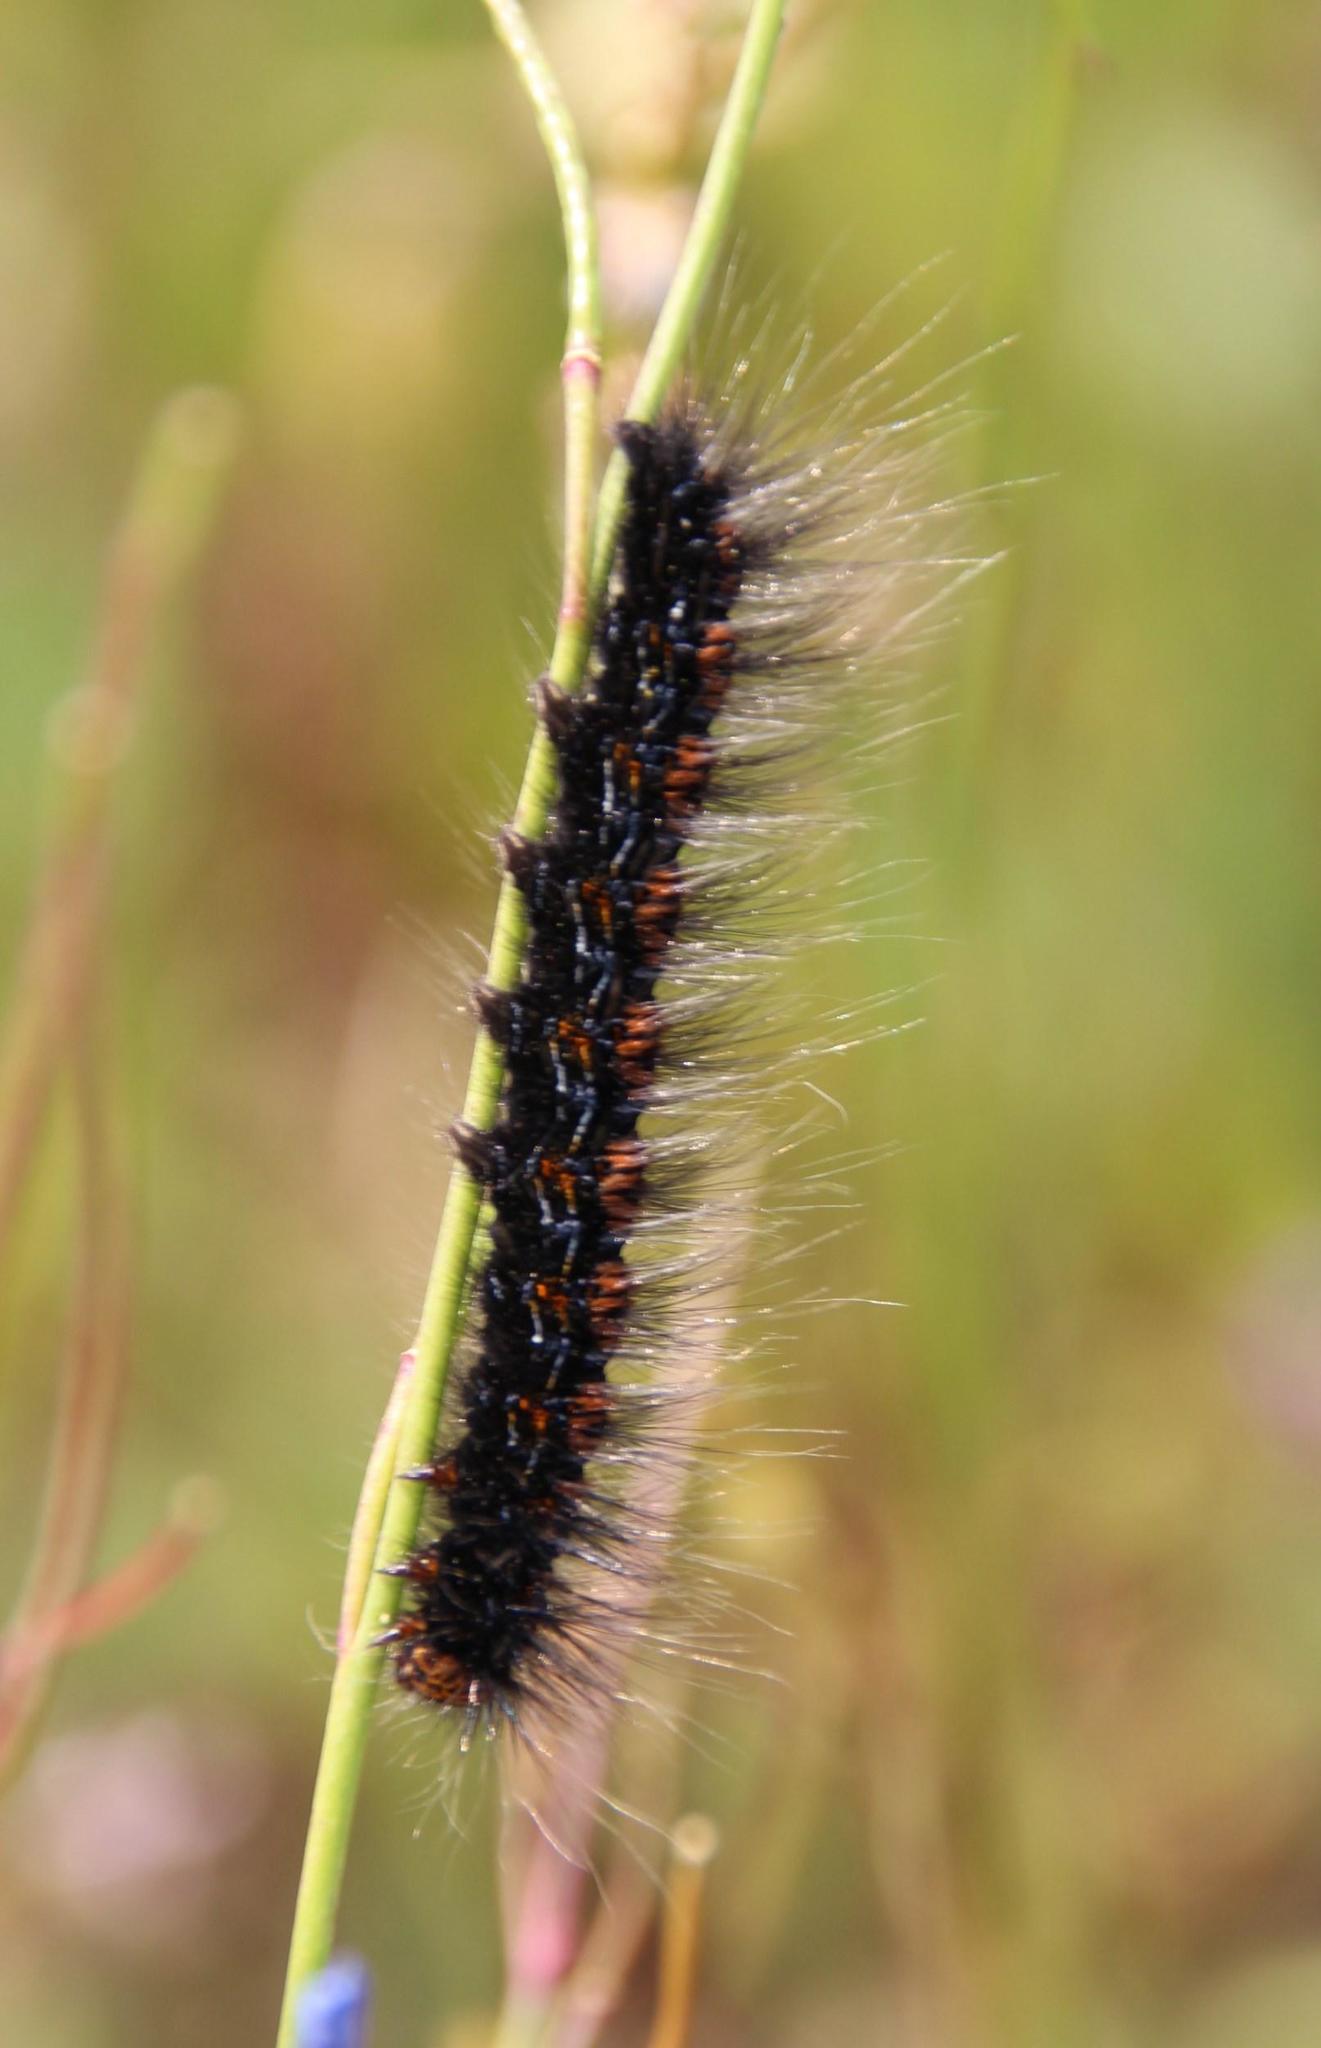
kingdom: Animalia
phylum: Arthropoda
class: Insecta
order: Lepidoptera
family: Lasiocampidae
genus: Mesocelis
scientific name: Mesocelis monticola
